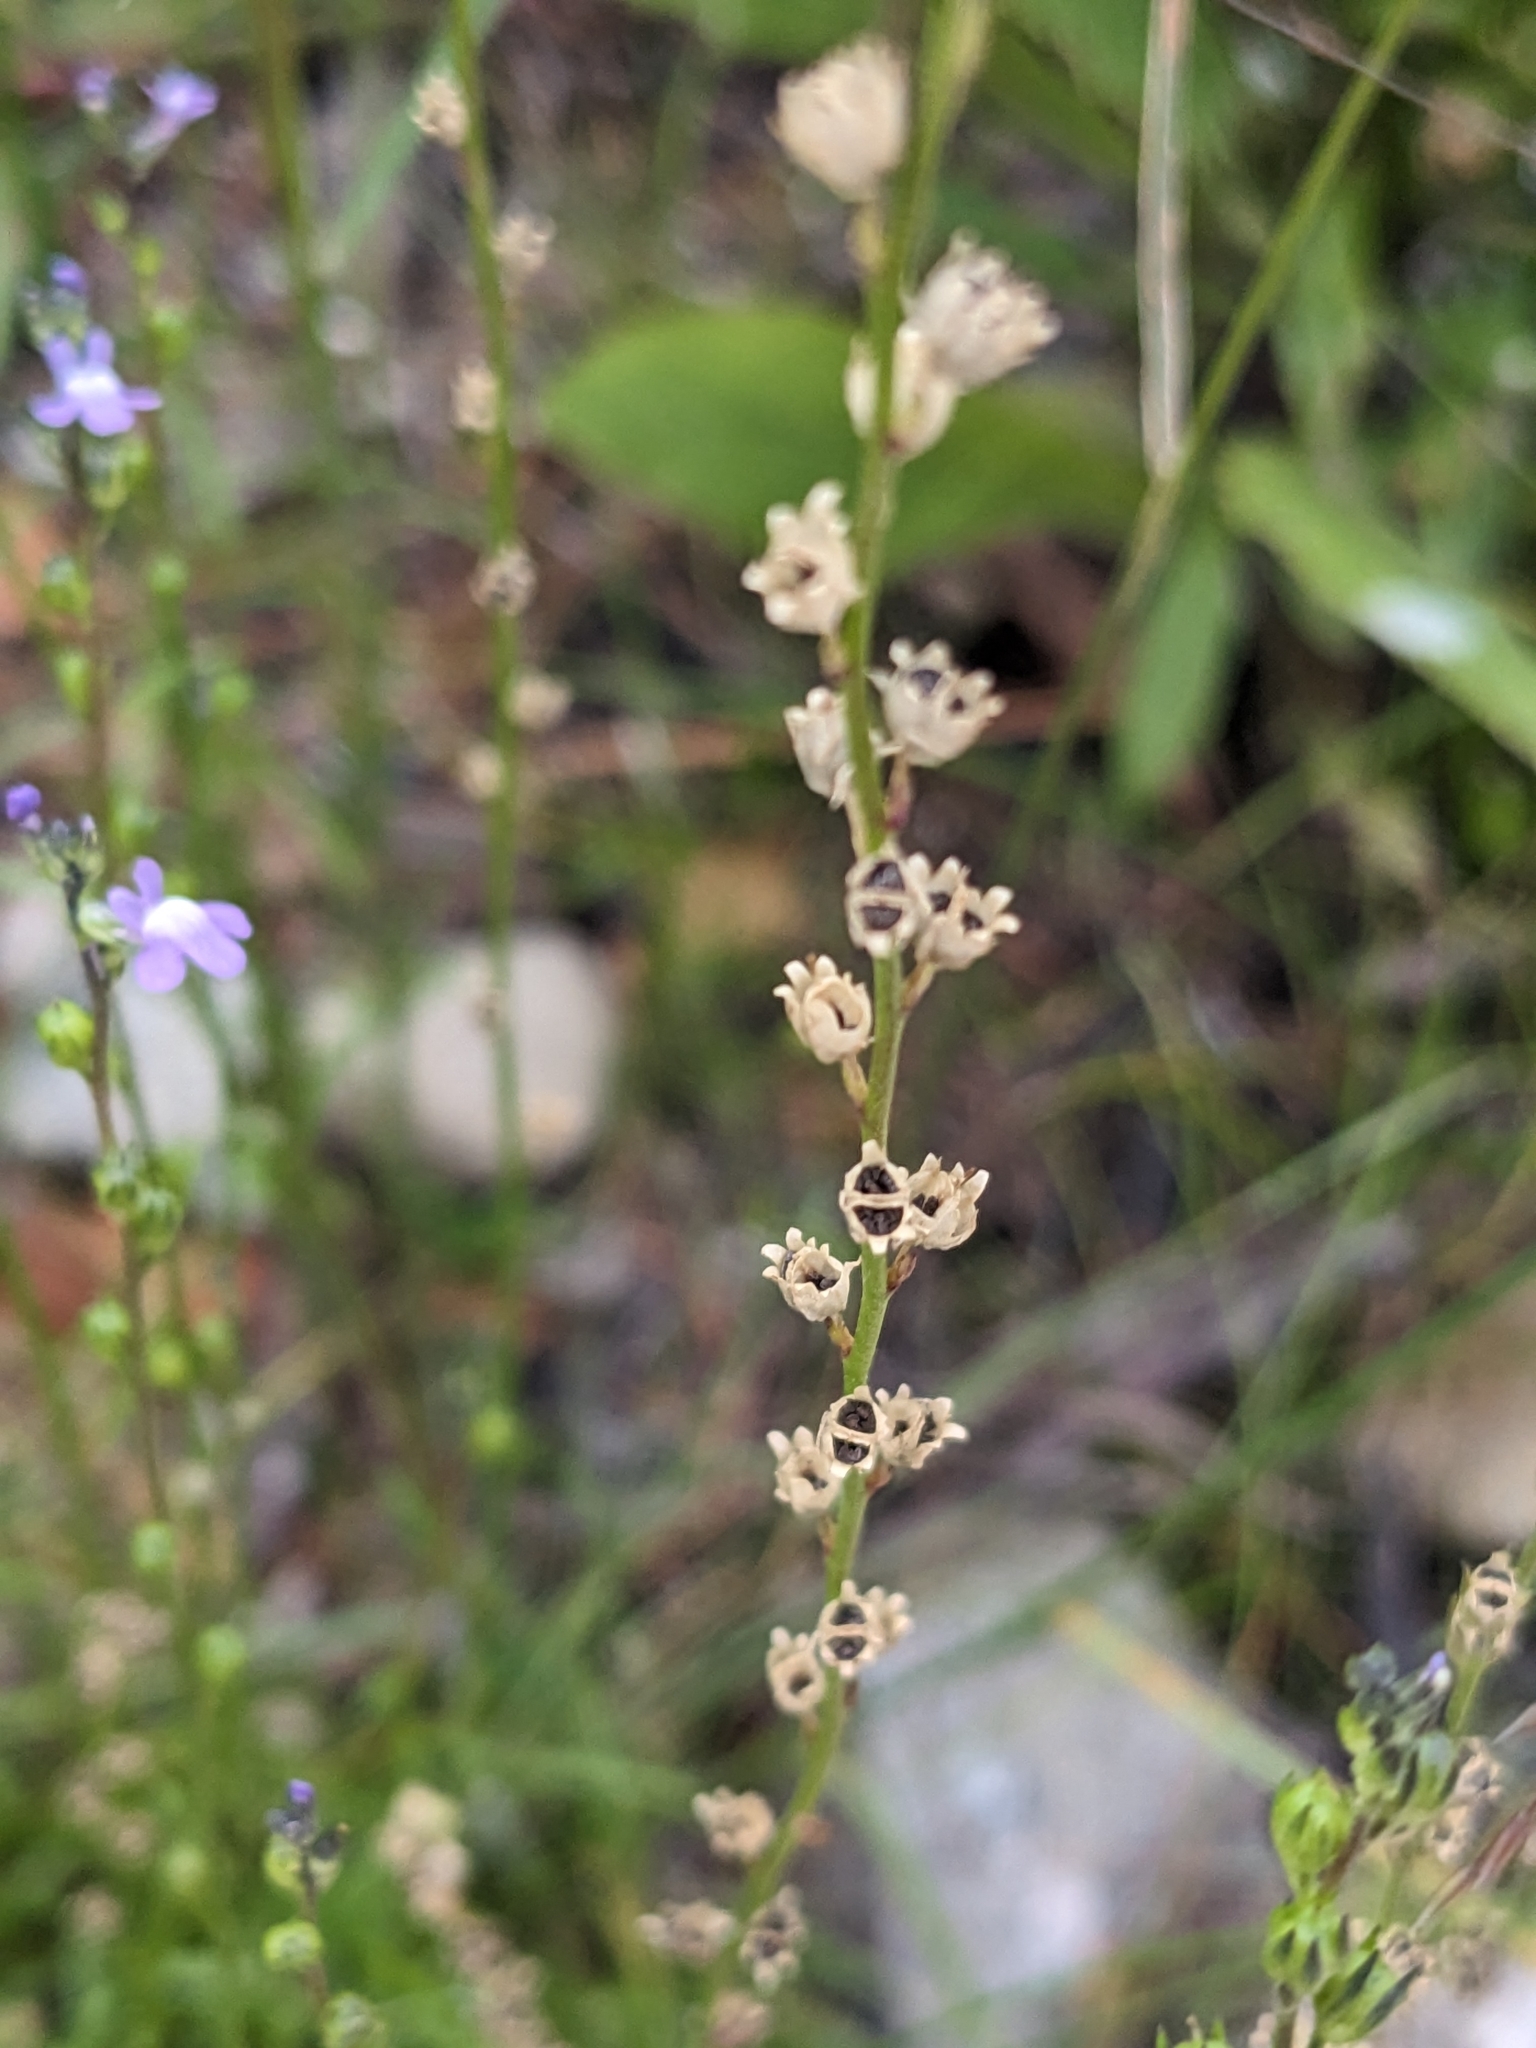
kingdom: Plantae
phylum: Tracheophyta
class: Magnoliopsida
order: Lamiales
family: Plantaginaceae
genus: Nuttallanthus
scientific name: Nuttallanthus canadensis
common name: Blue toadflax
